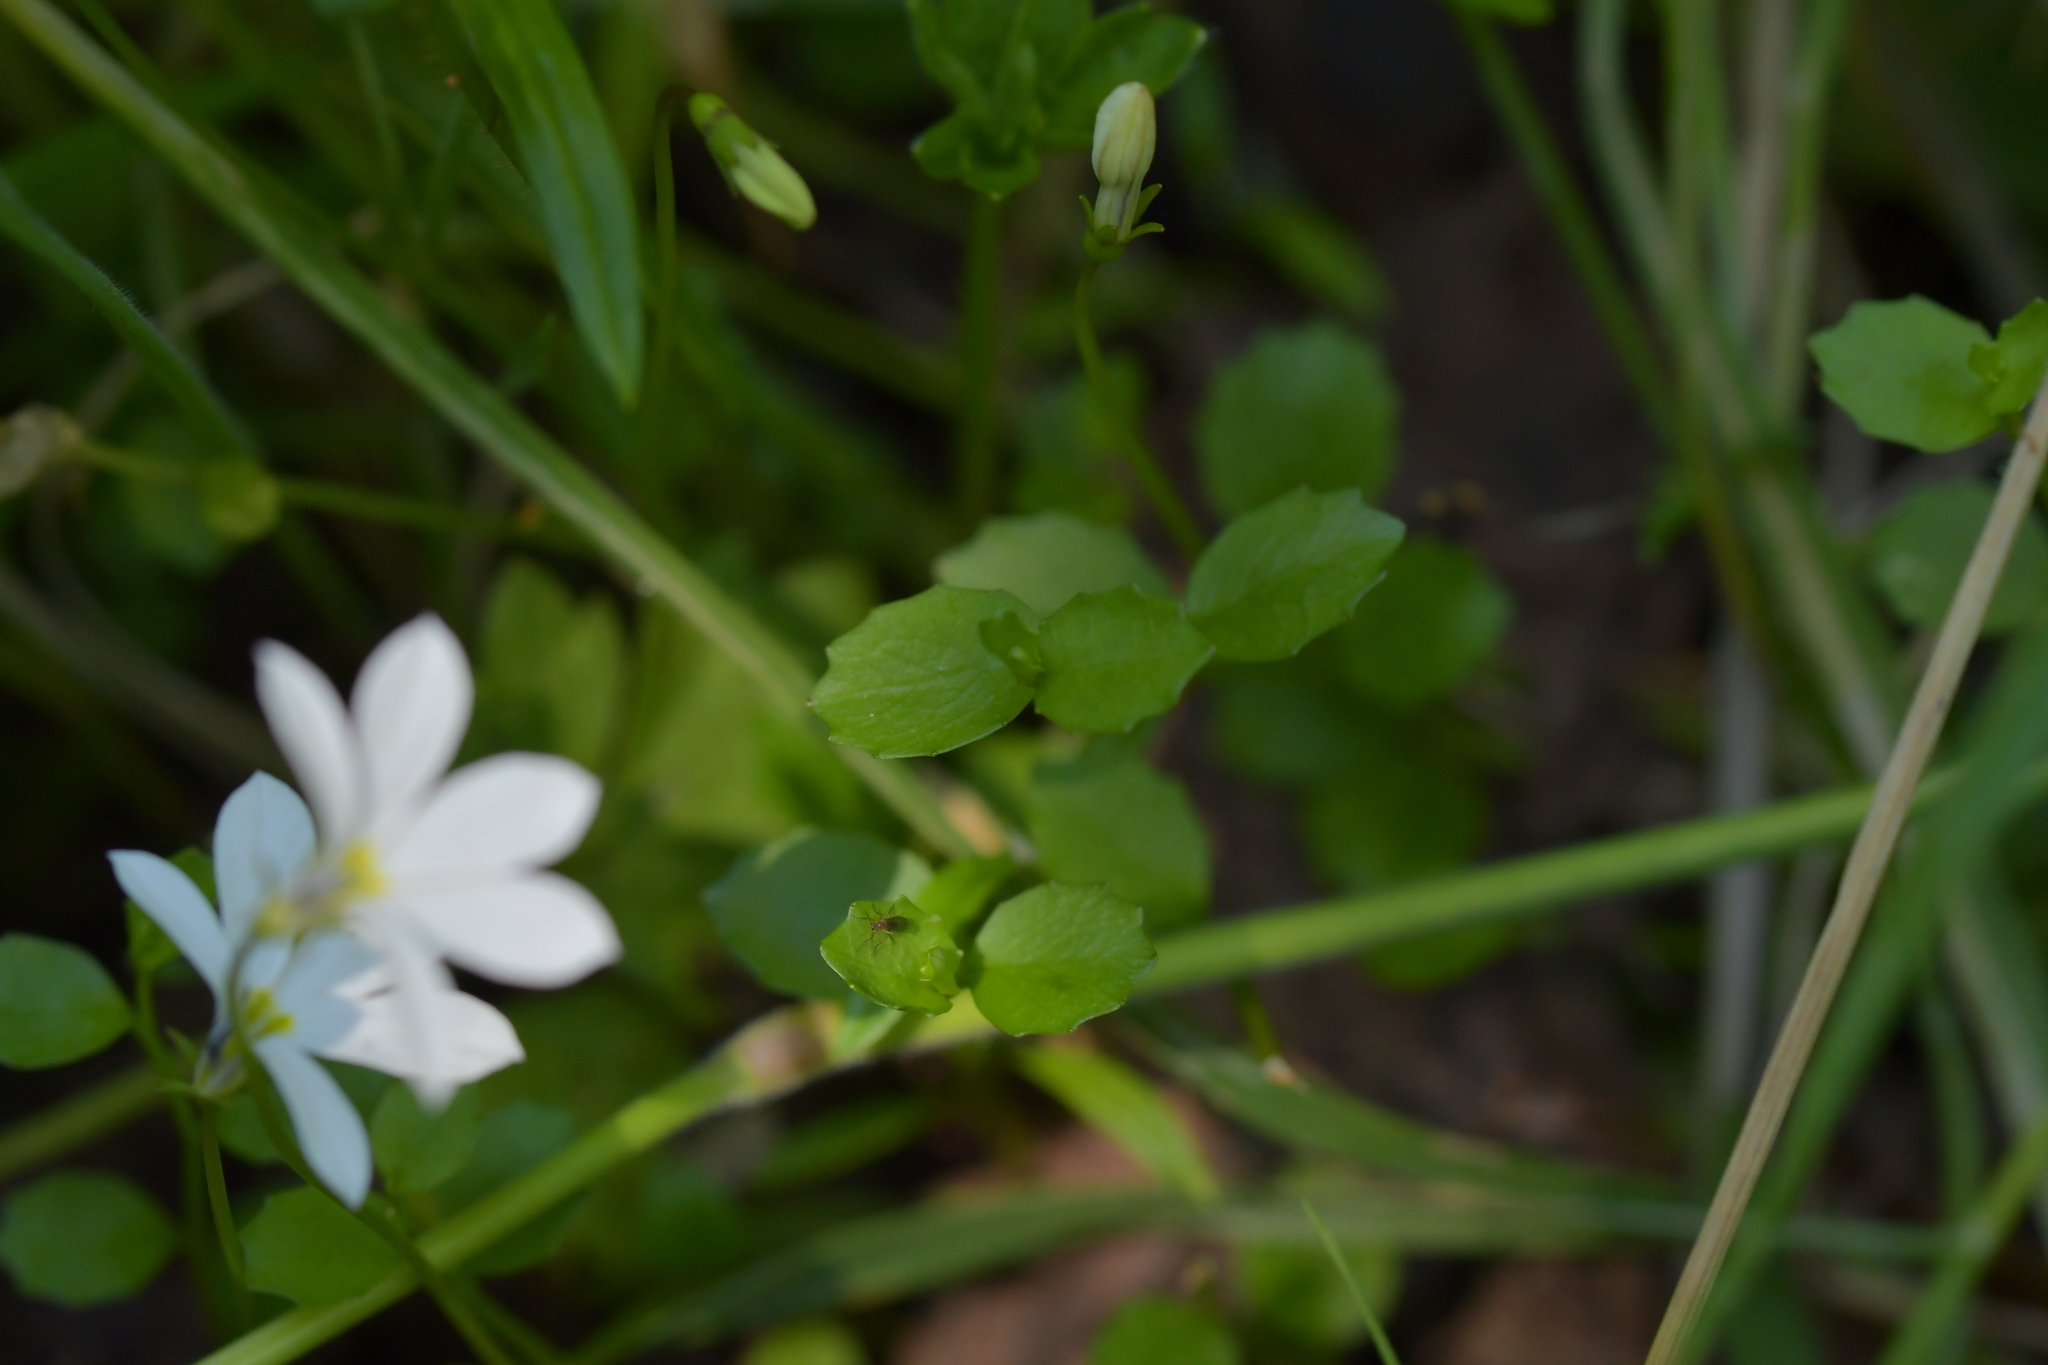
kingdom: Plantae
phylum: Tracheophyta
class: Magnoliopsida
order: Asterales
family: Campanulaceae
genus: Lobelia
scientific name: Lobelia angulata
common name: Lawn lobelia
